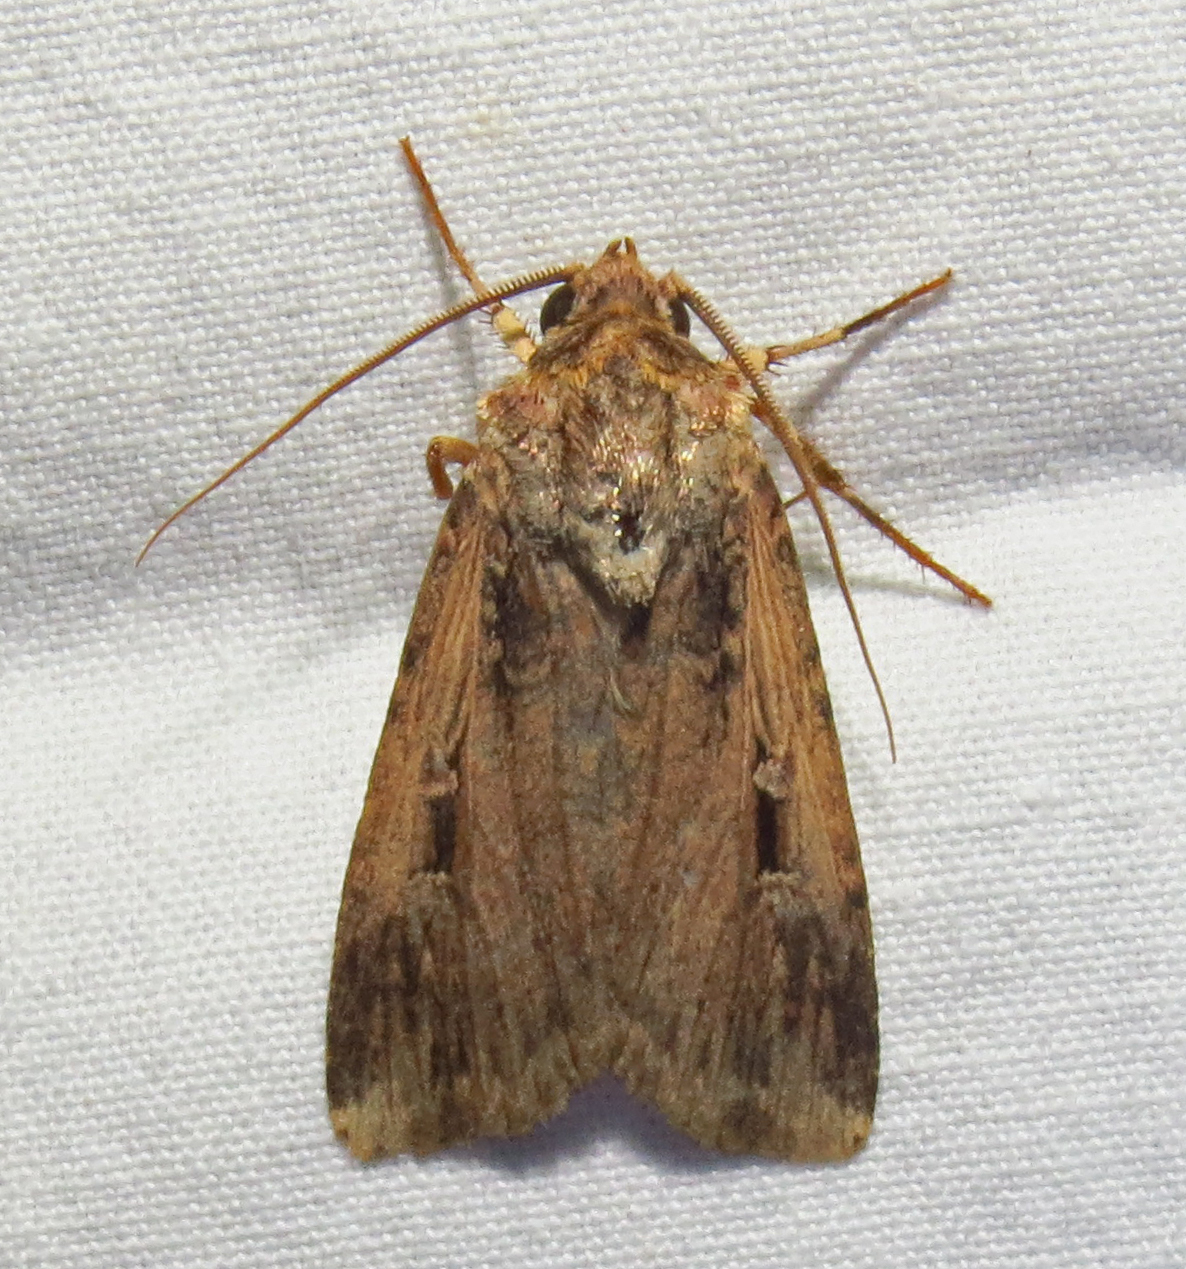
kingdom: Animalia
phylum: Arthropoda
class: Insecta
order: Lepidoptera
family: Noctuidae
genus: Feltia
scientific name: Feltia subterranea
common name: Granulate cutworm
